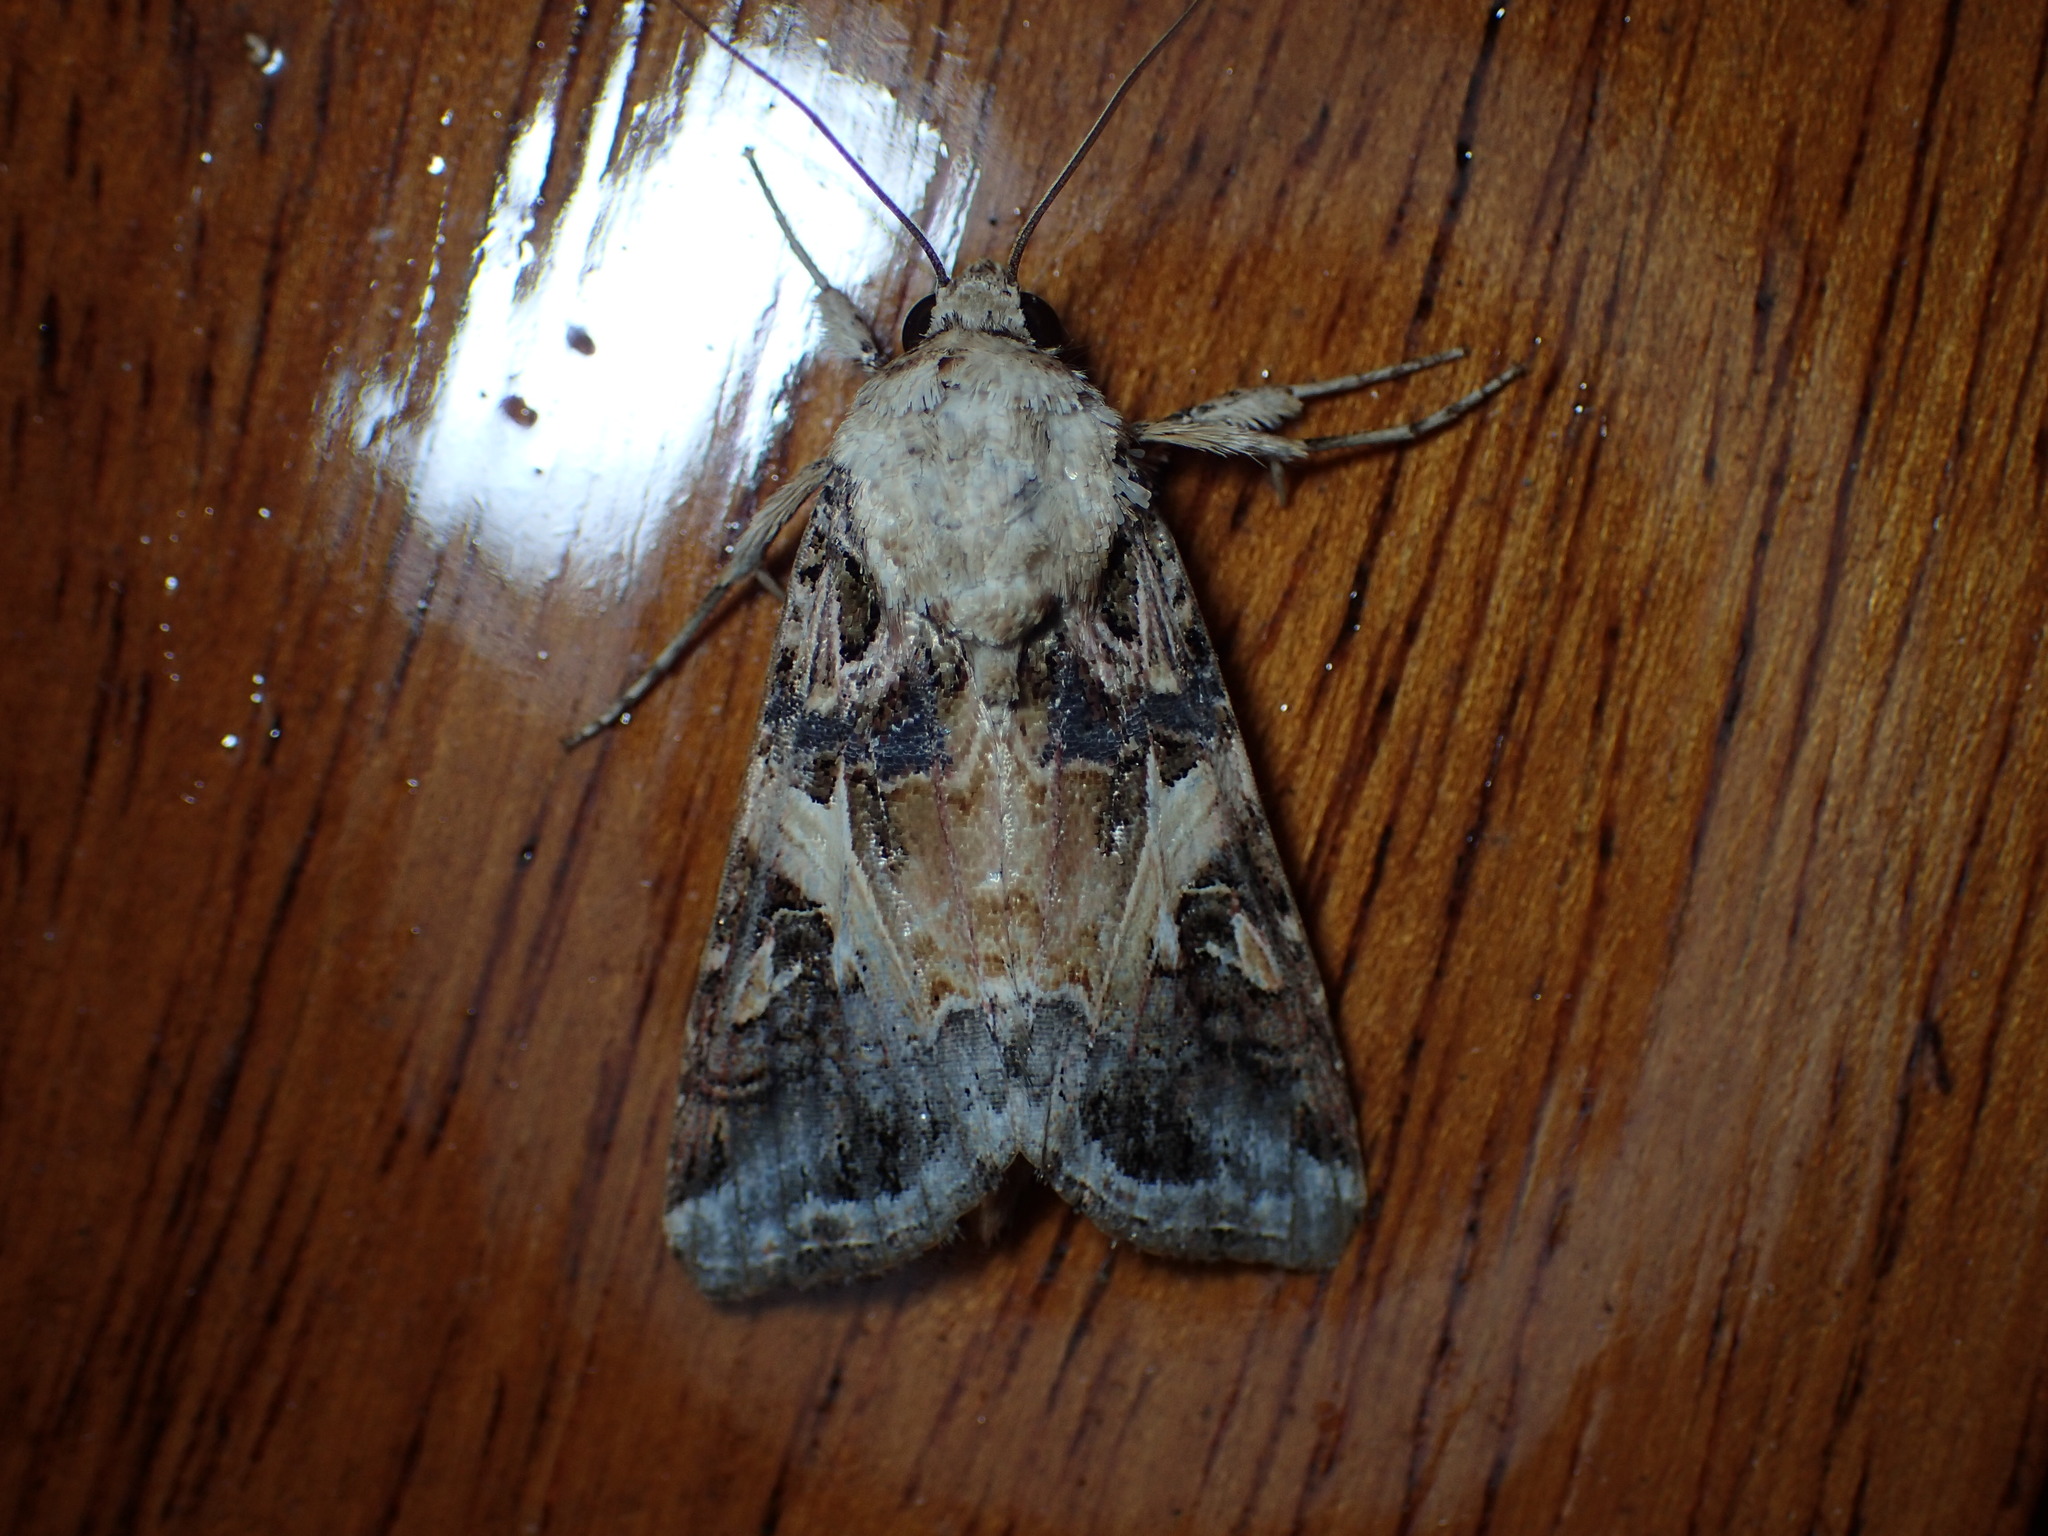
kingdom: Animalia
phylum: Arthropoda
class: Insecta
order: Lepidoptera
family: Noctuidae
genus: Spodoptera
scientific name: Spodoptera ornithogalli
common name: Yellow-striped armyworm
